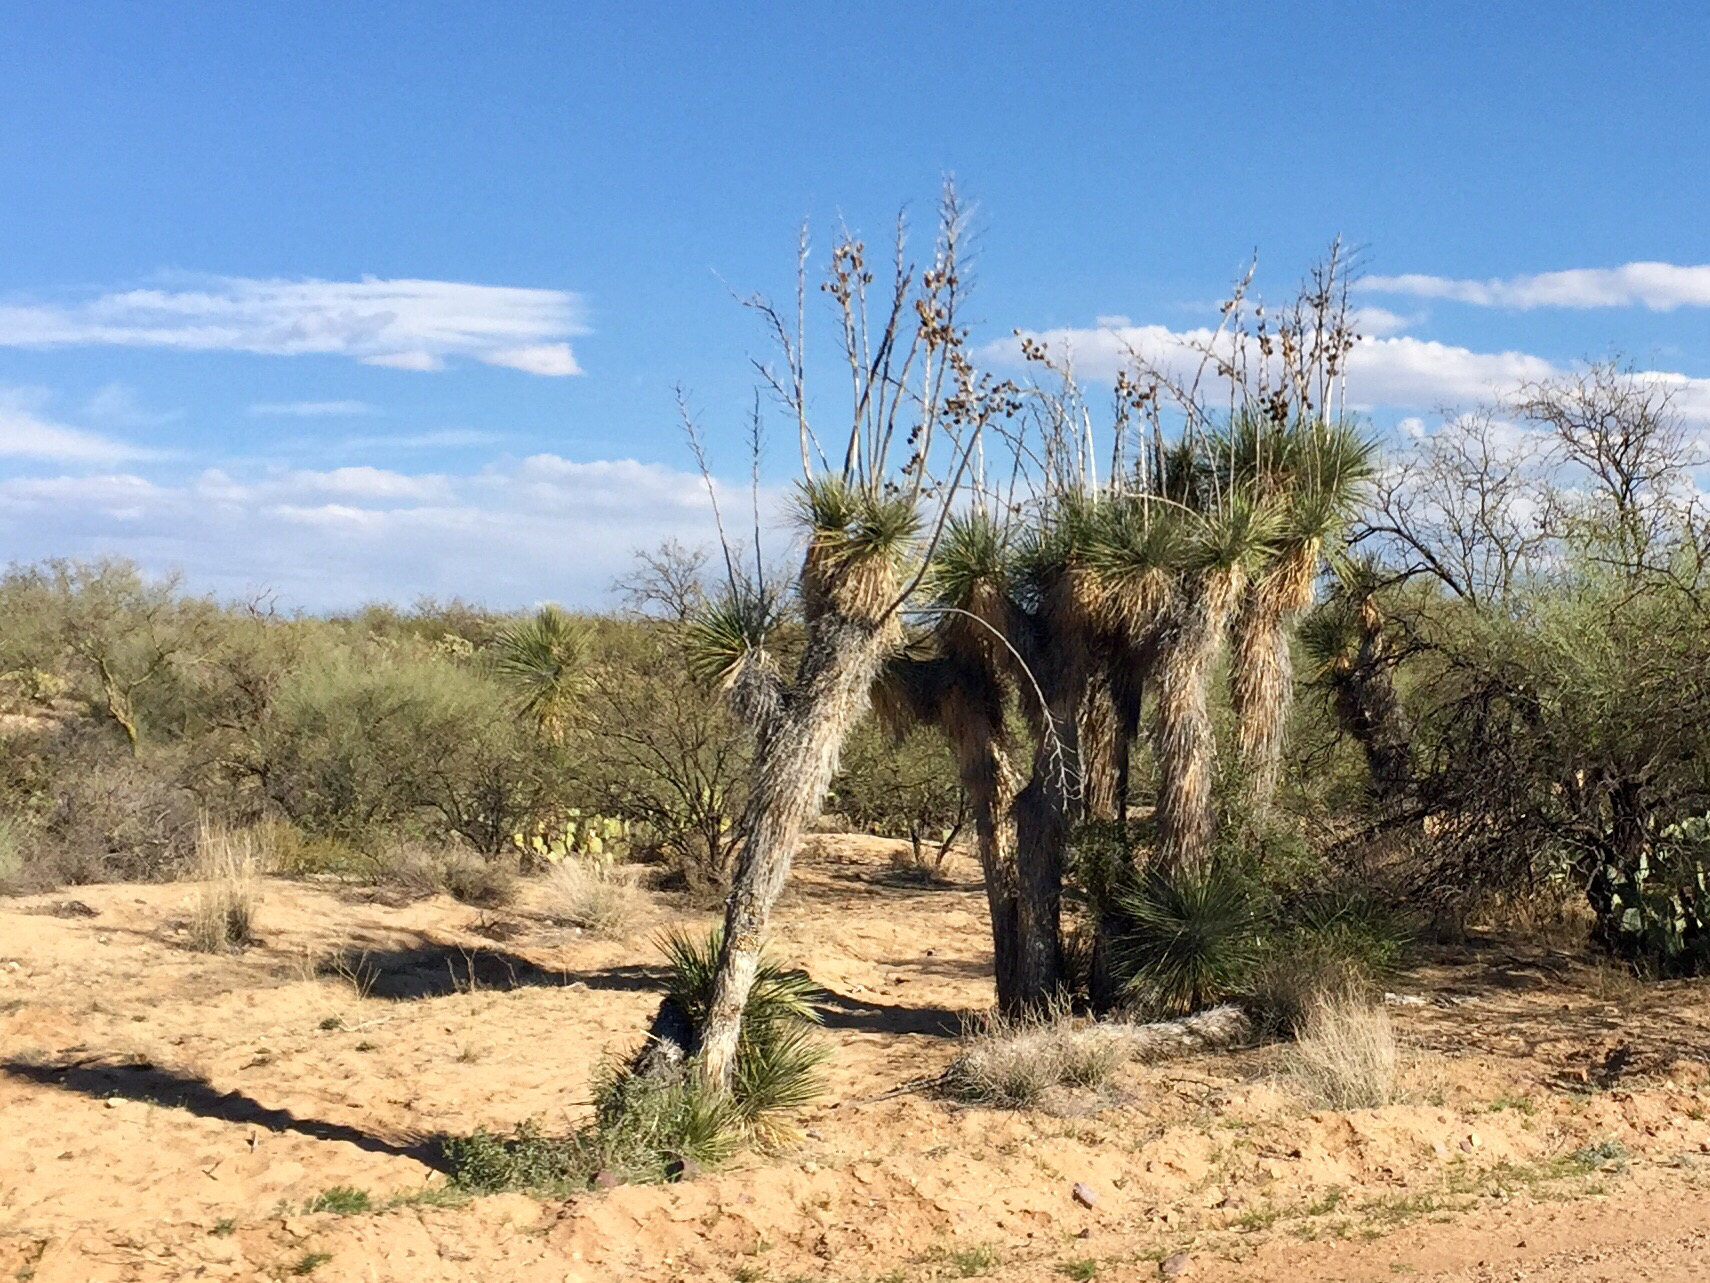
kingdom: Plantae
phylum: Tracheophyta
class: Liliopsida
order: Asparagales
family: Asparagaceae
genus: Yucca
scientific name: Yucca elata
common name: Palmella
